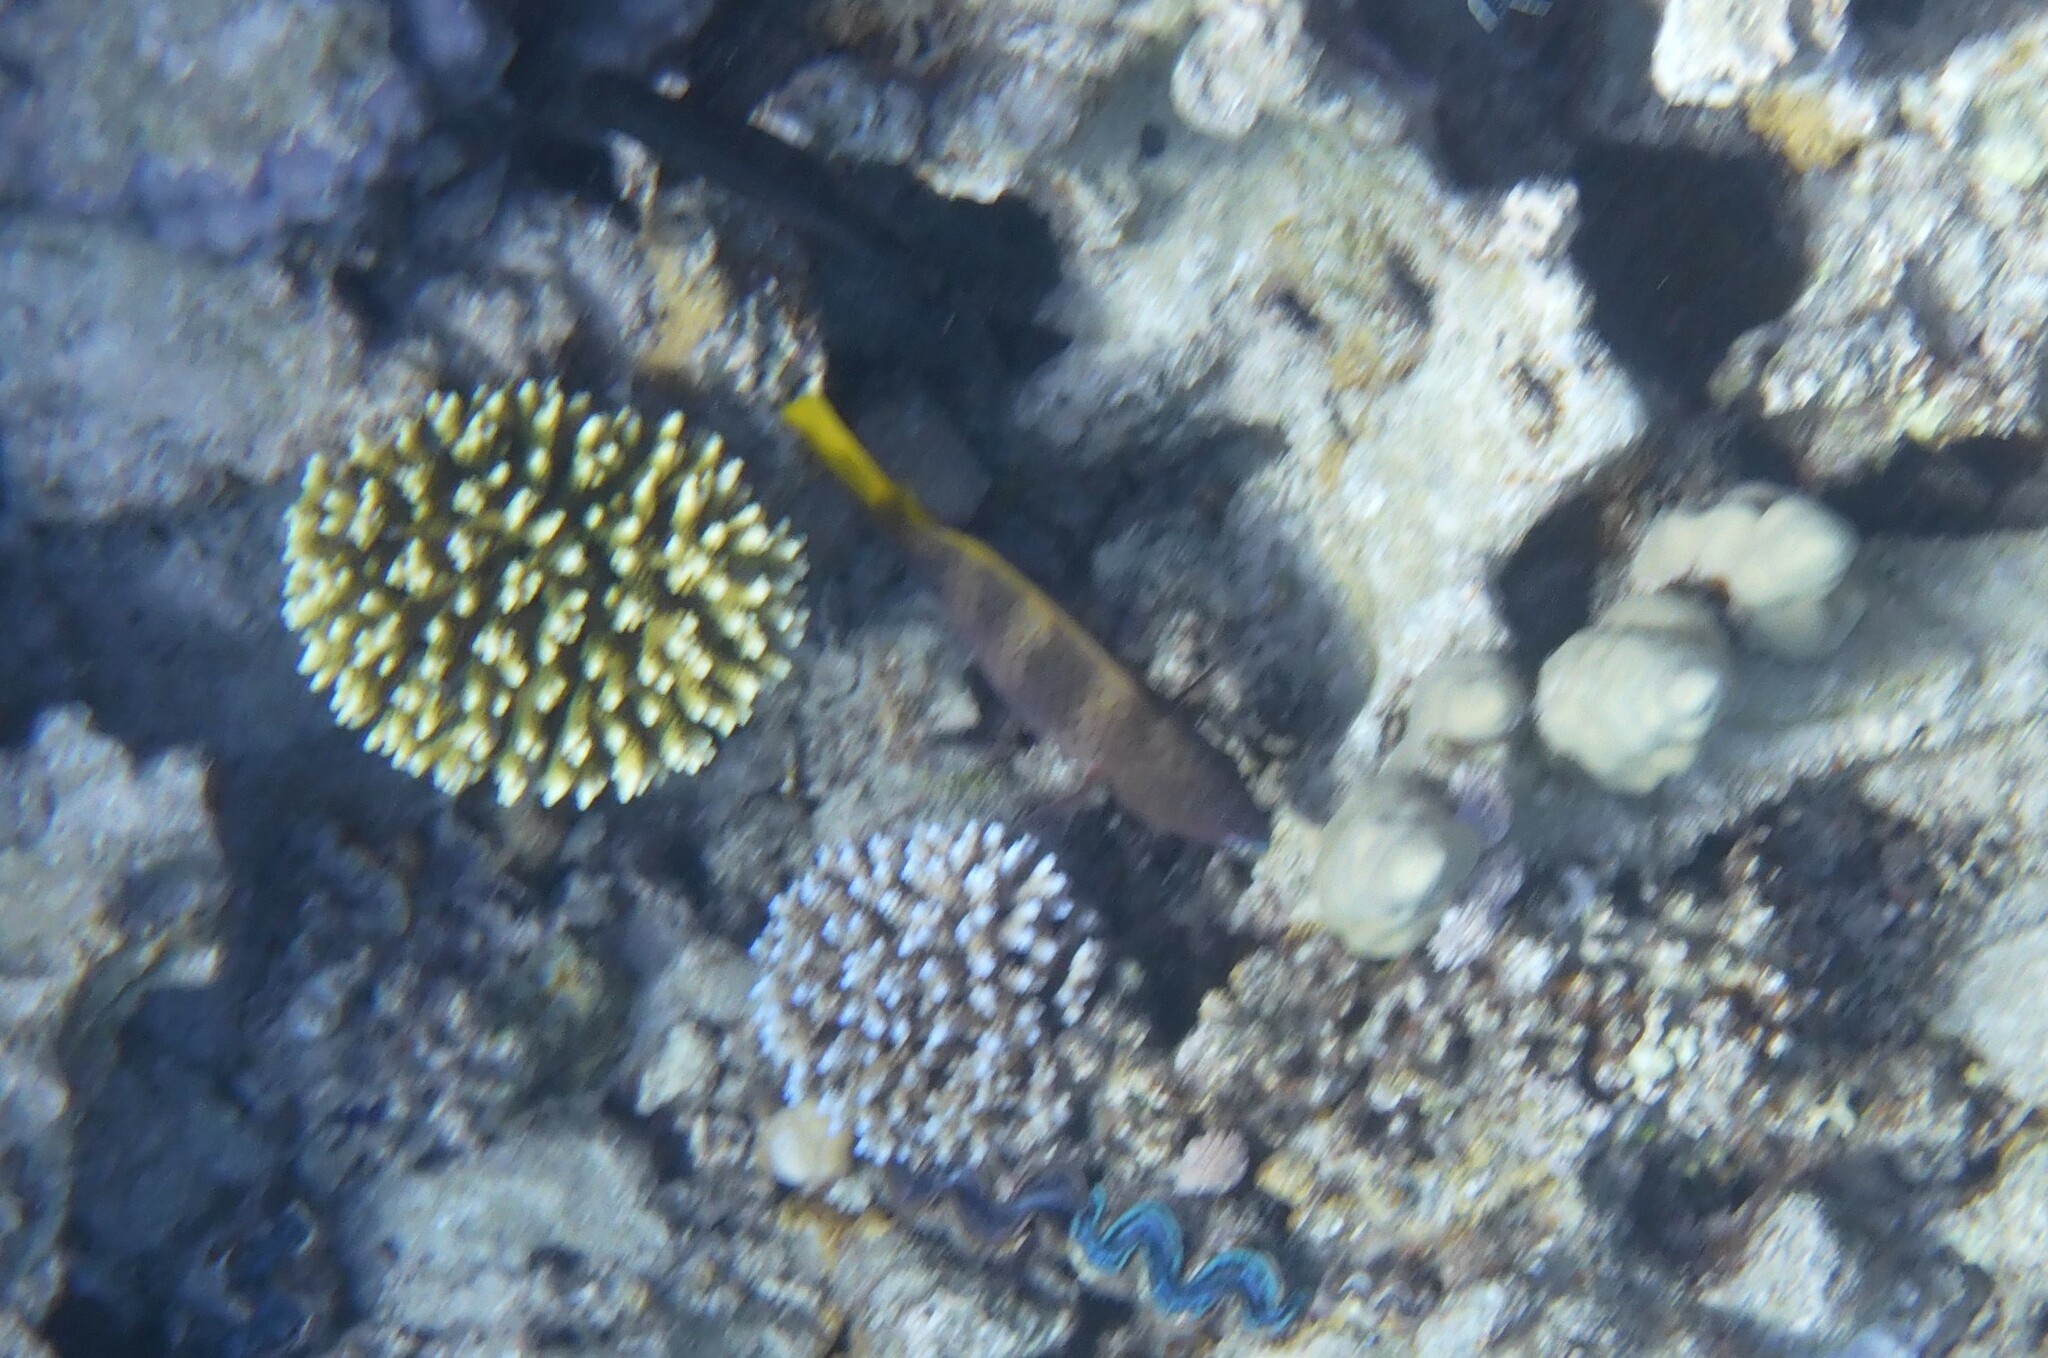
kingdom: Animalia
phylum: Chordata
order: Perciformes
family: Scaridae
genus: Scarus
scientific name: Scarus ferrugineus
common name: Rusty parrotfish
